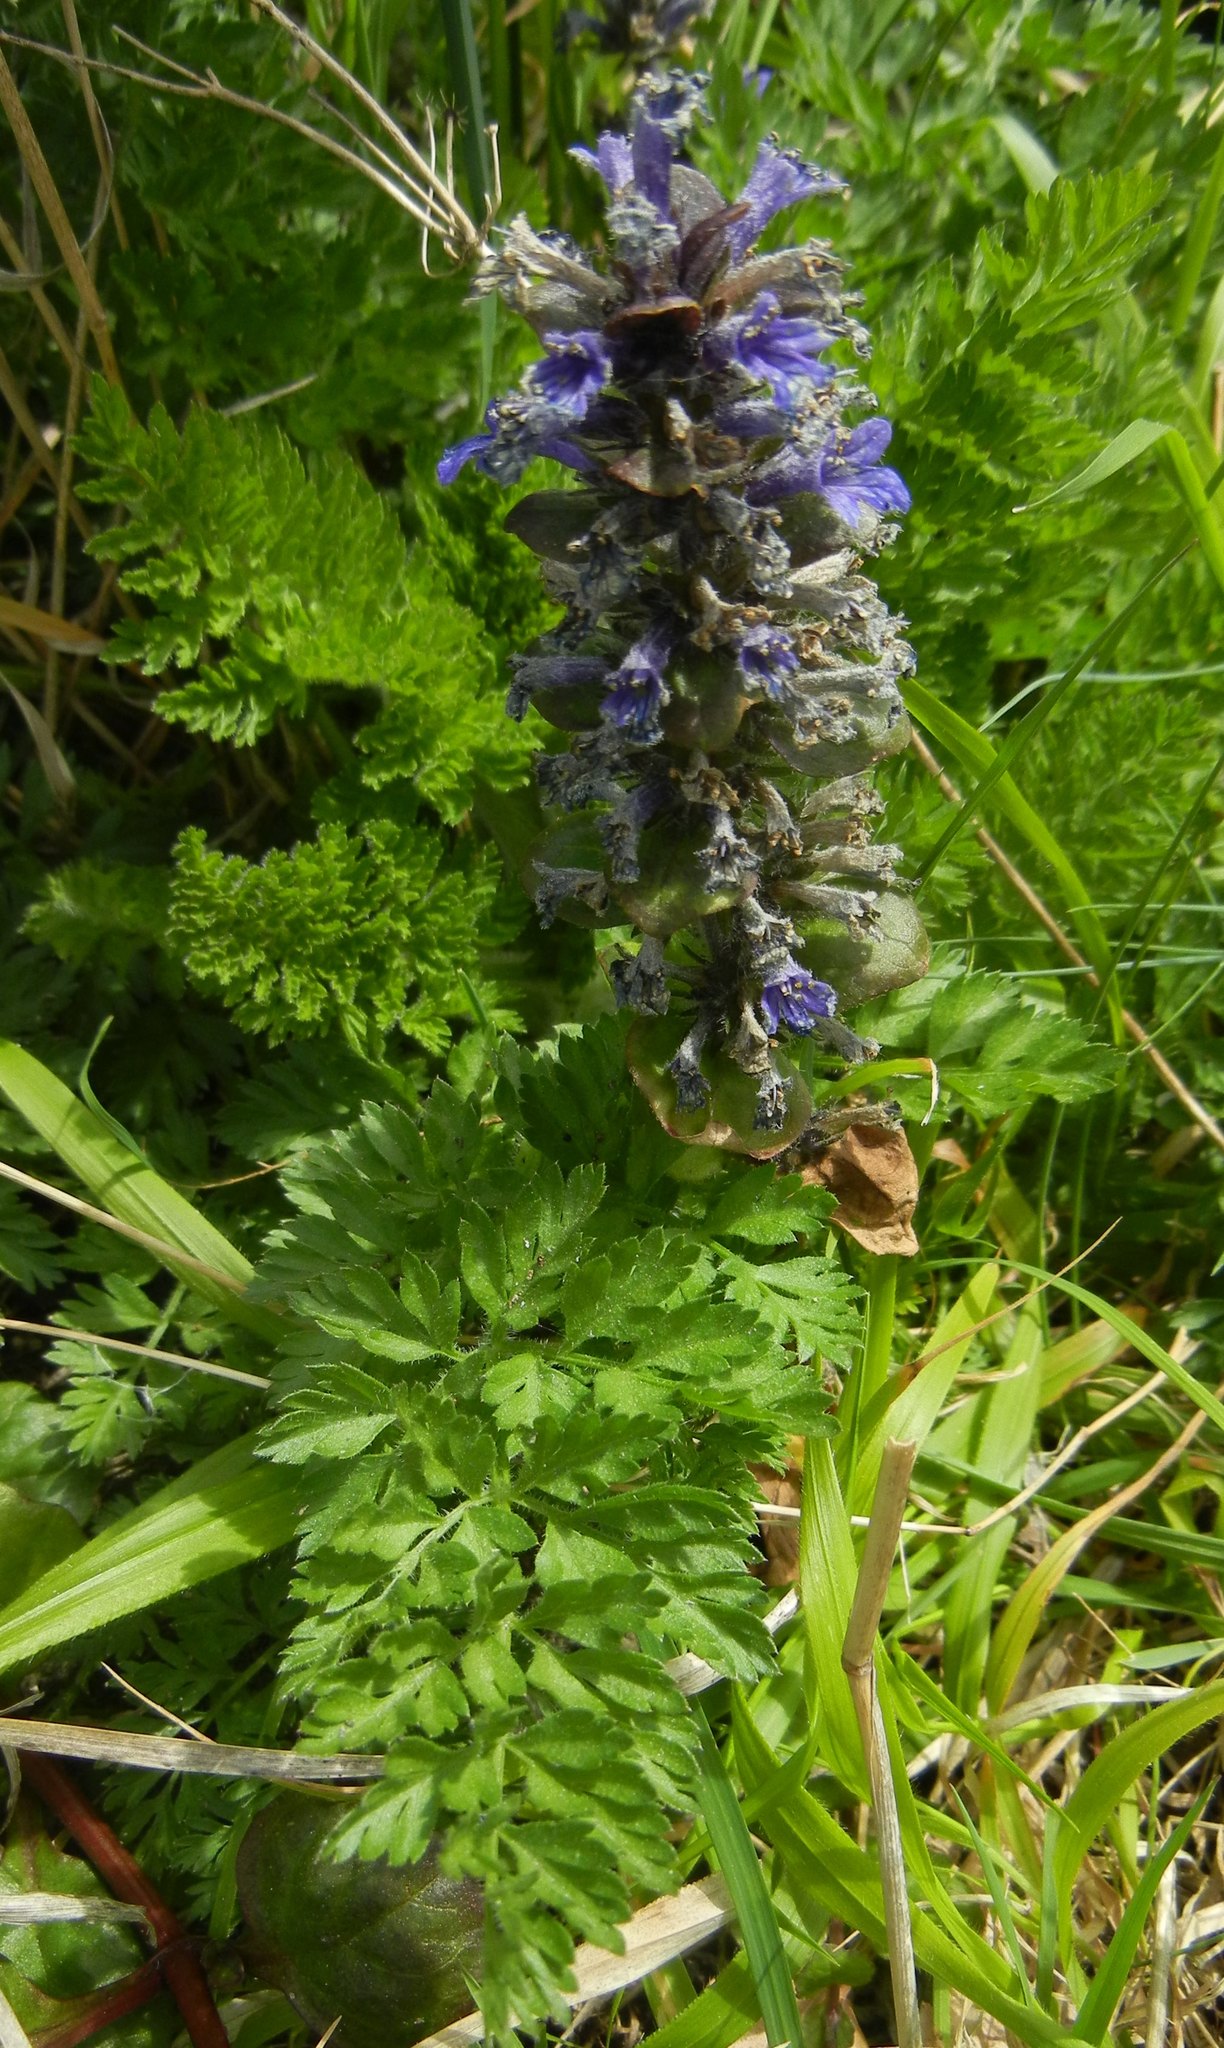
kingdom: Plantae
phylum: Tracheophyta
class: Magnoliopsida
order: Lamiales
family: Lamiaceae
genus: Ajuga
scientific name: Ajuga reptans
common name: Bugle
